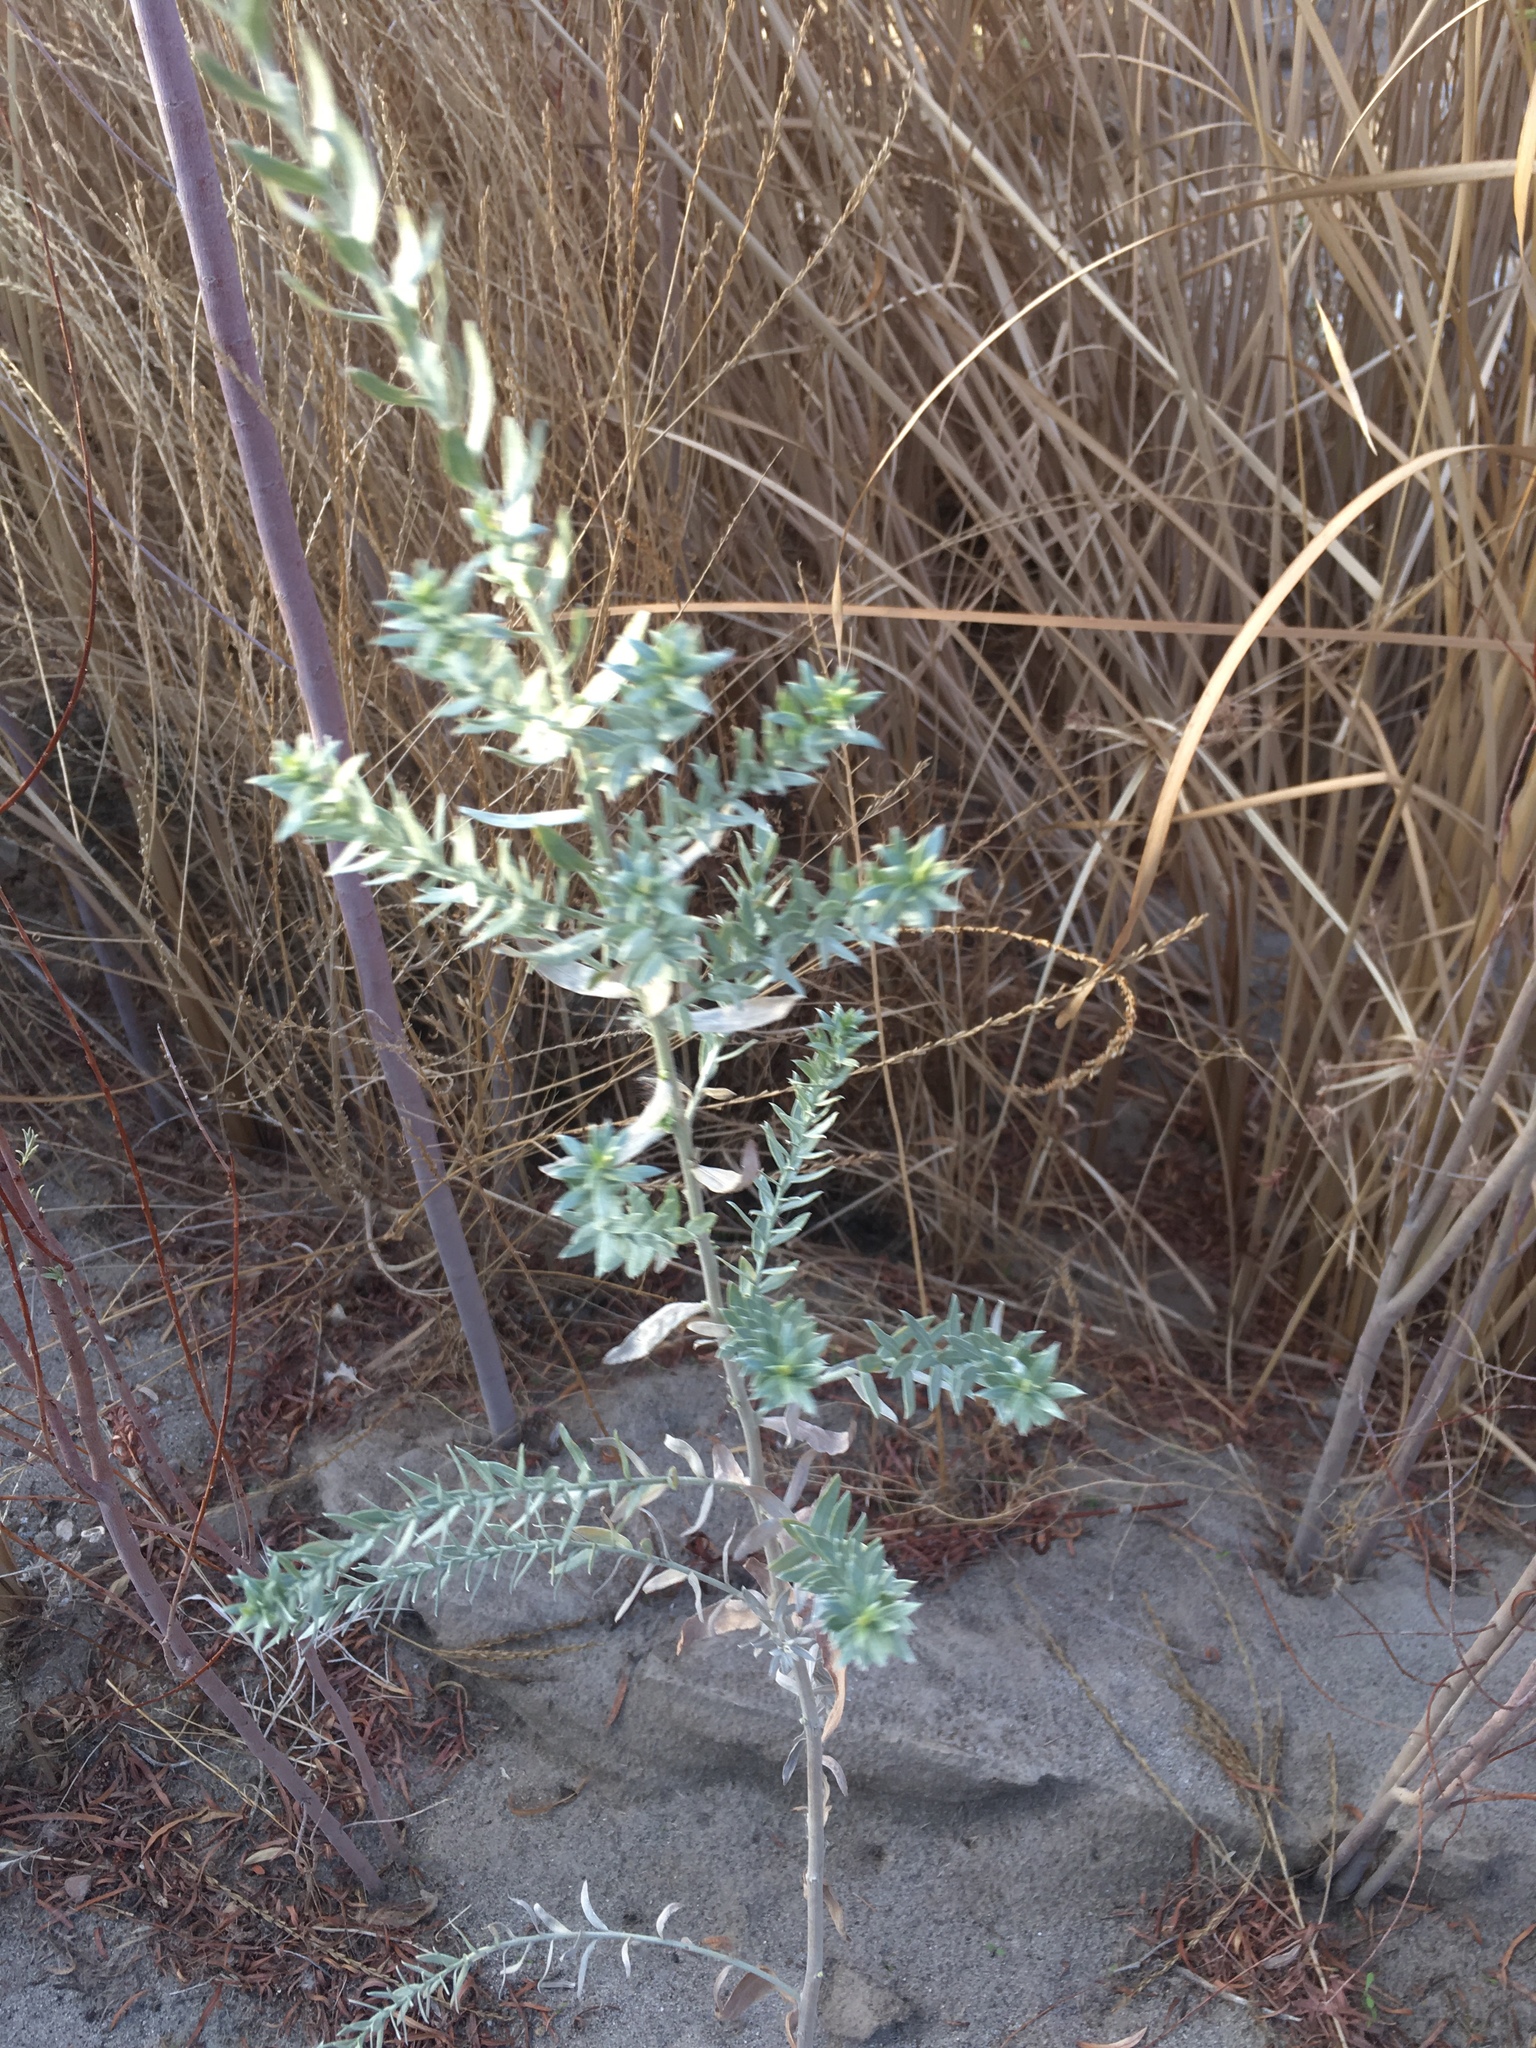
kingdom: Plantae
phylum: Tracheophyta
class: Magnoliopsida
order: Asterales
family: Asteraceae
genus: Pluchea
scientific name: Pluchea sericea
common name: Arrow-weed
